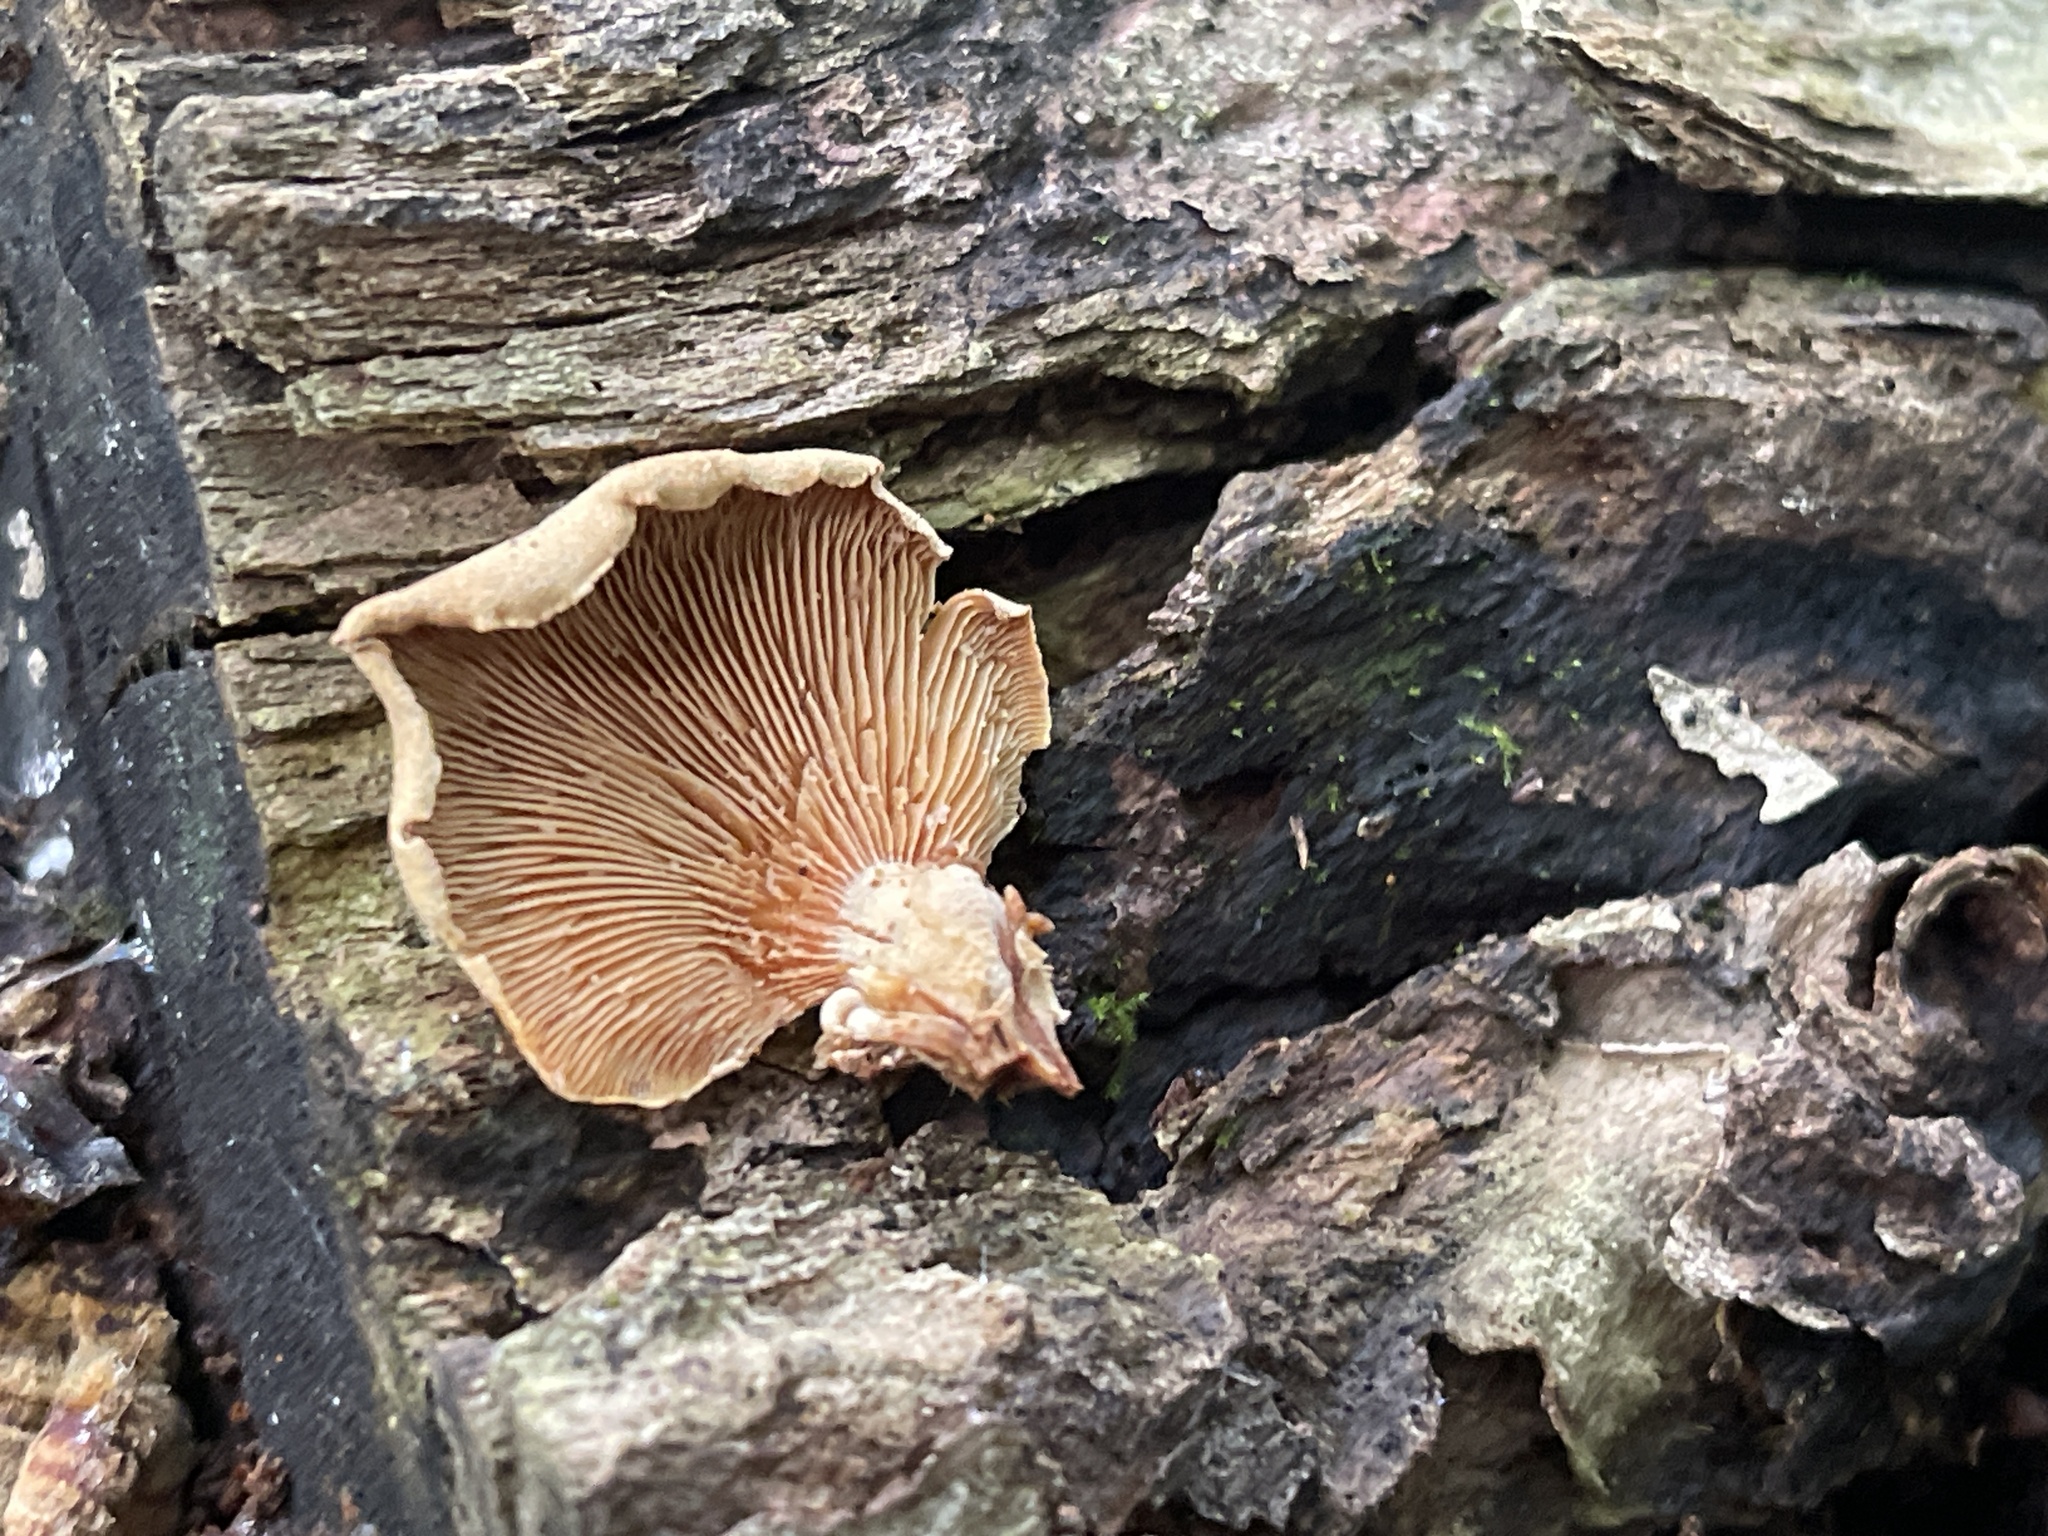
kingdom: Fungi
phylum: Basidiomycota
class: Agaricomycetes
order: Agaricales
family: Mycenaceae
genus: Panellus
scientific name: Panellus stipticus
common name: Bitter oysterling
